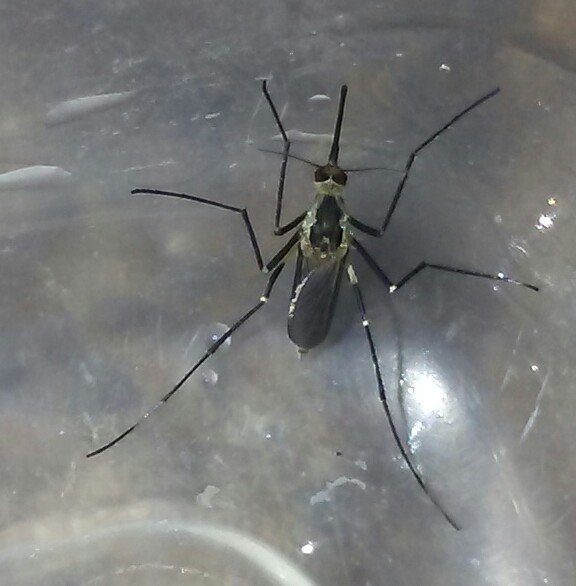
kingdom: Animalia
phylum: Arthropoda
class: Insecta
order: Diptera
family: Culicidae
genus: Aedes
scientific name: Aedes triseriatus
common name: Eastern treehole mosquito
